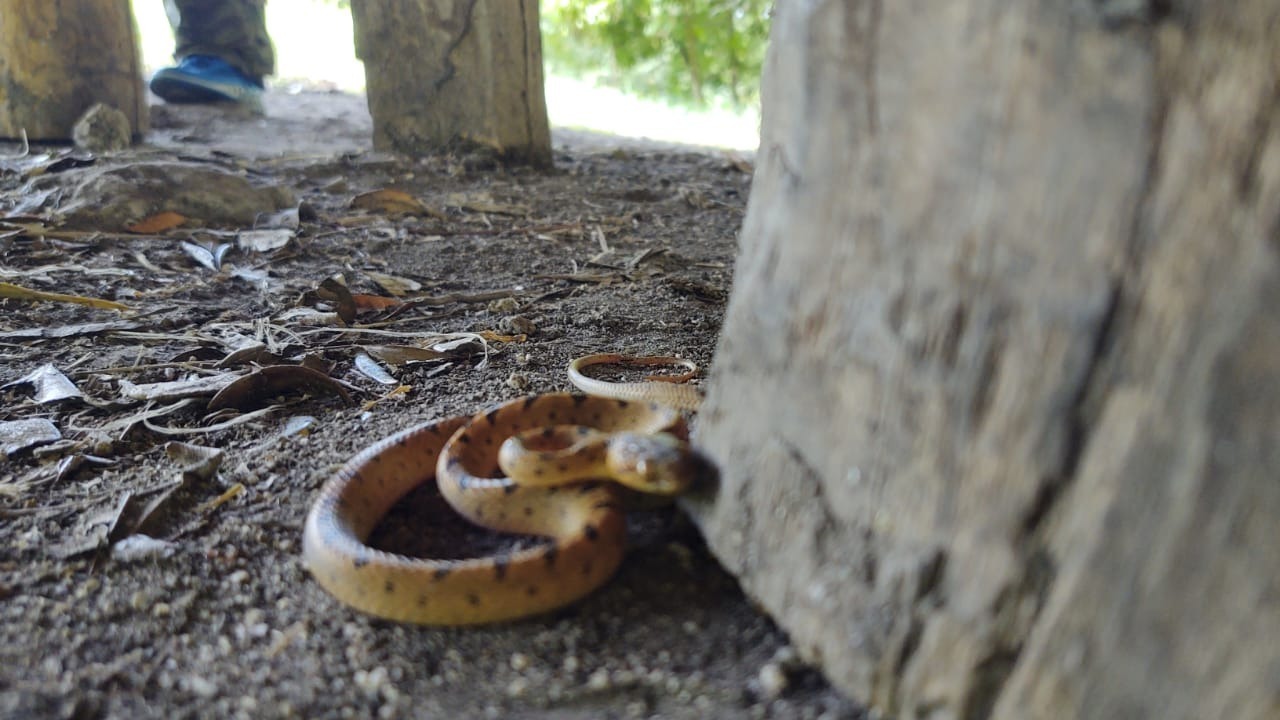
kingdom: Animalia
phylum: Chordata
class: Squamata
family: Colubridae
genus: Leptodeira
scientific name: Leptodeira septentrionalis
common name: Northern cat-eyed snake
